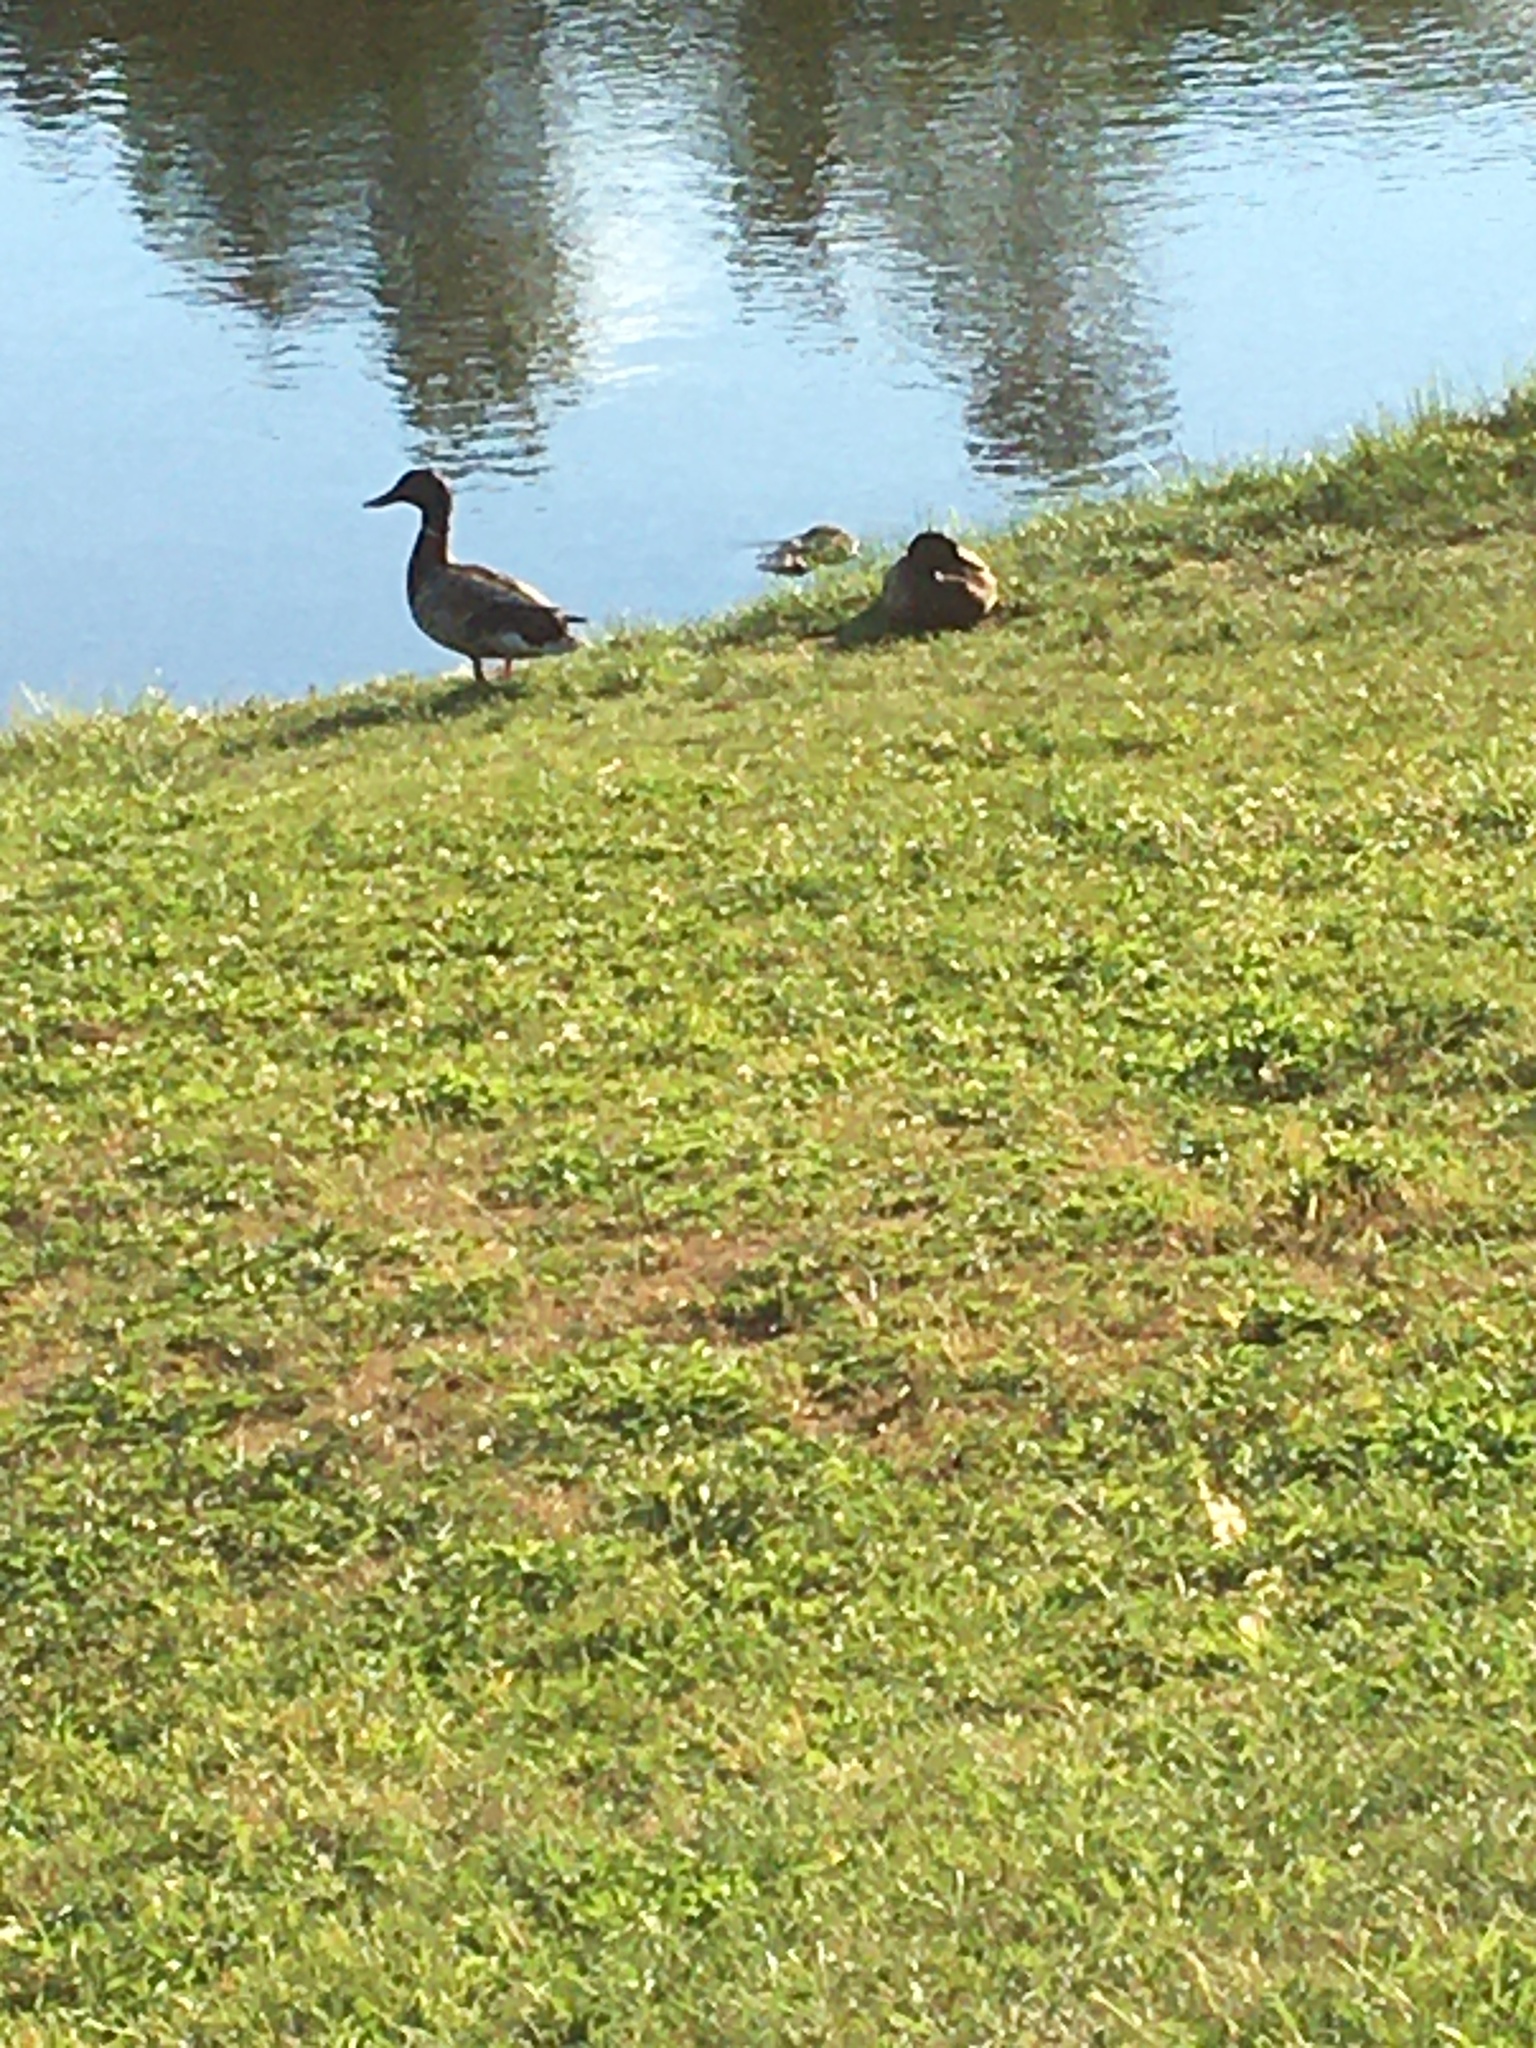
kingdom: Animalia
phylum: Chordata
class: Aves
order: Anseriformes
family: Anatidae
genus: Anas
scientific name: Anas platyrhynchos
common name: Mallard
